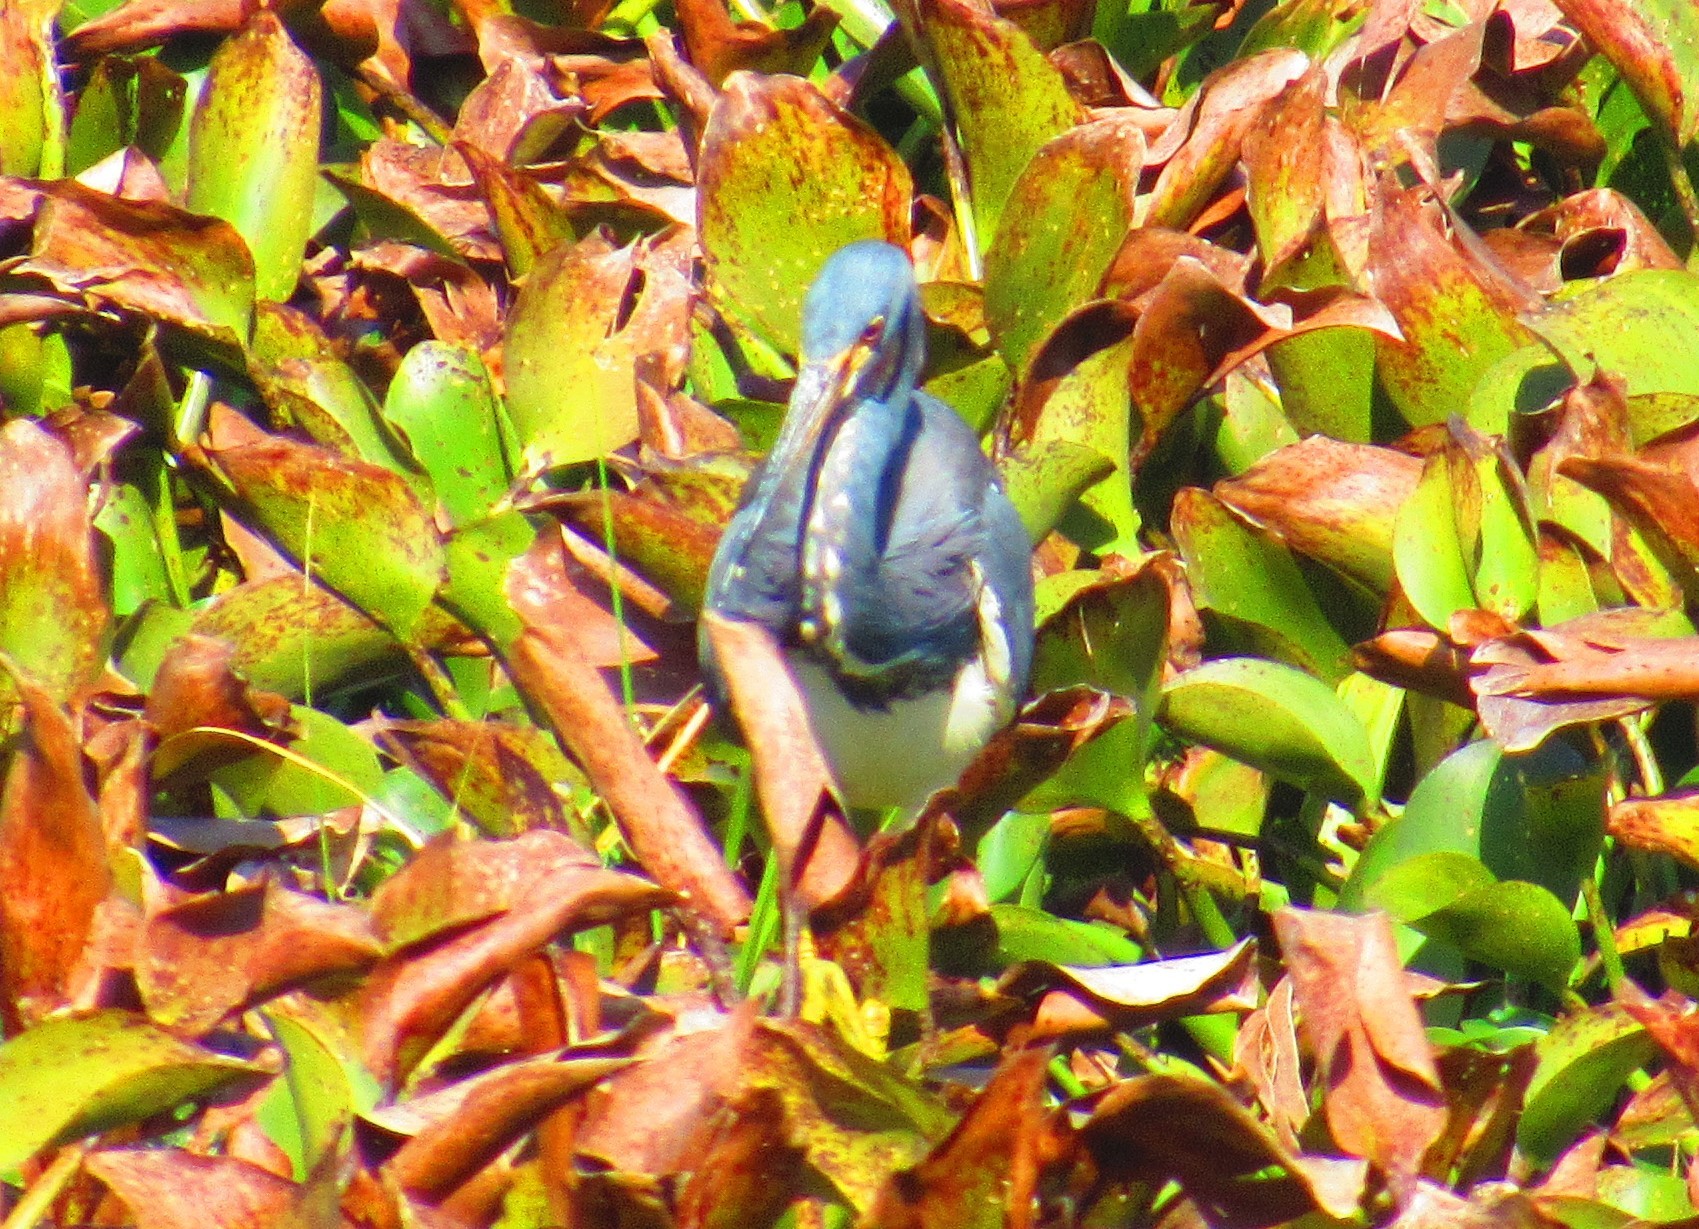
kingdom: Animalia
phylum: Chordata
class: Aves
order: Pelecaniformes
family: Ardeidae
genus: Egretta
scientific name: Egretta tricolor
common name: Tricolored heron
